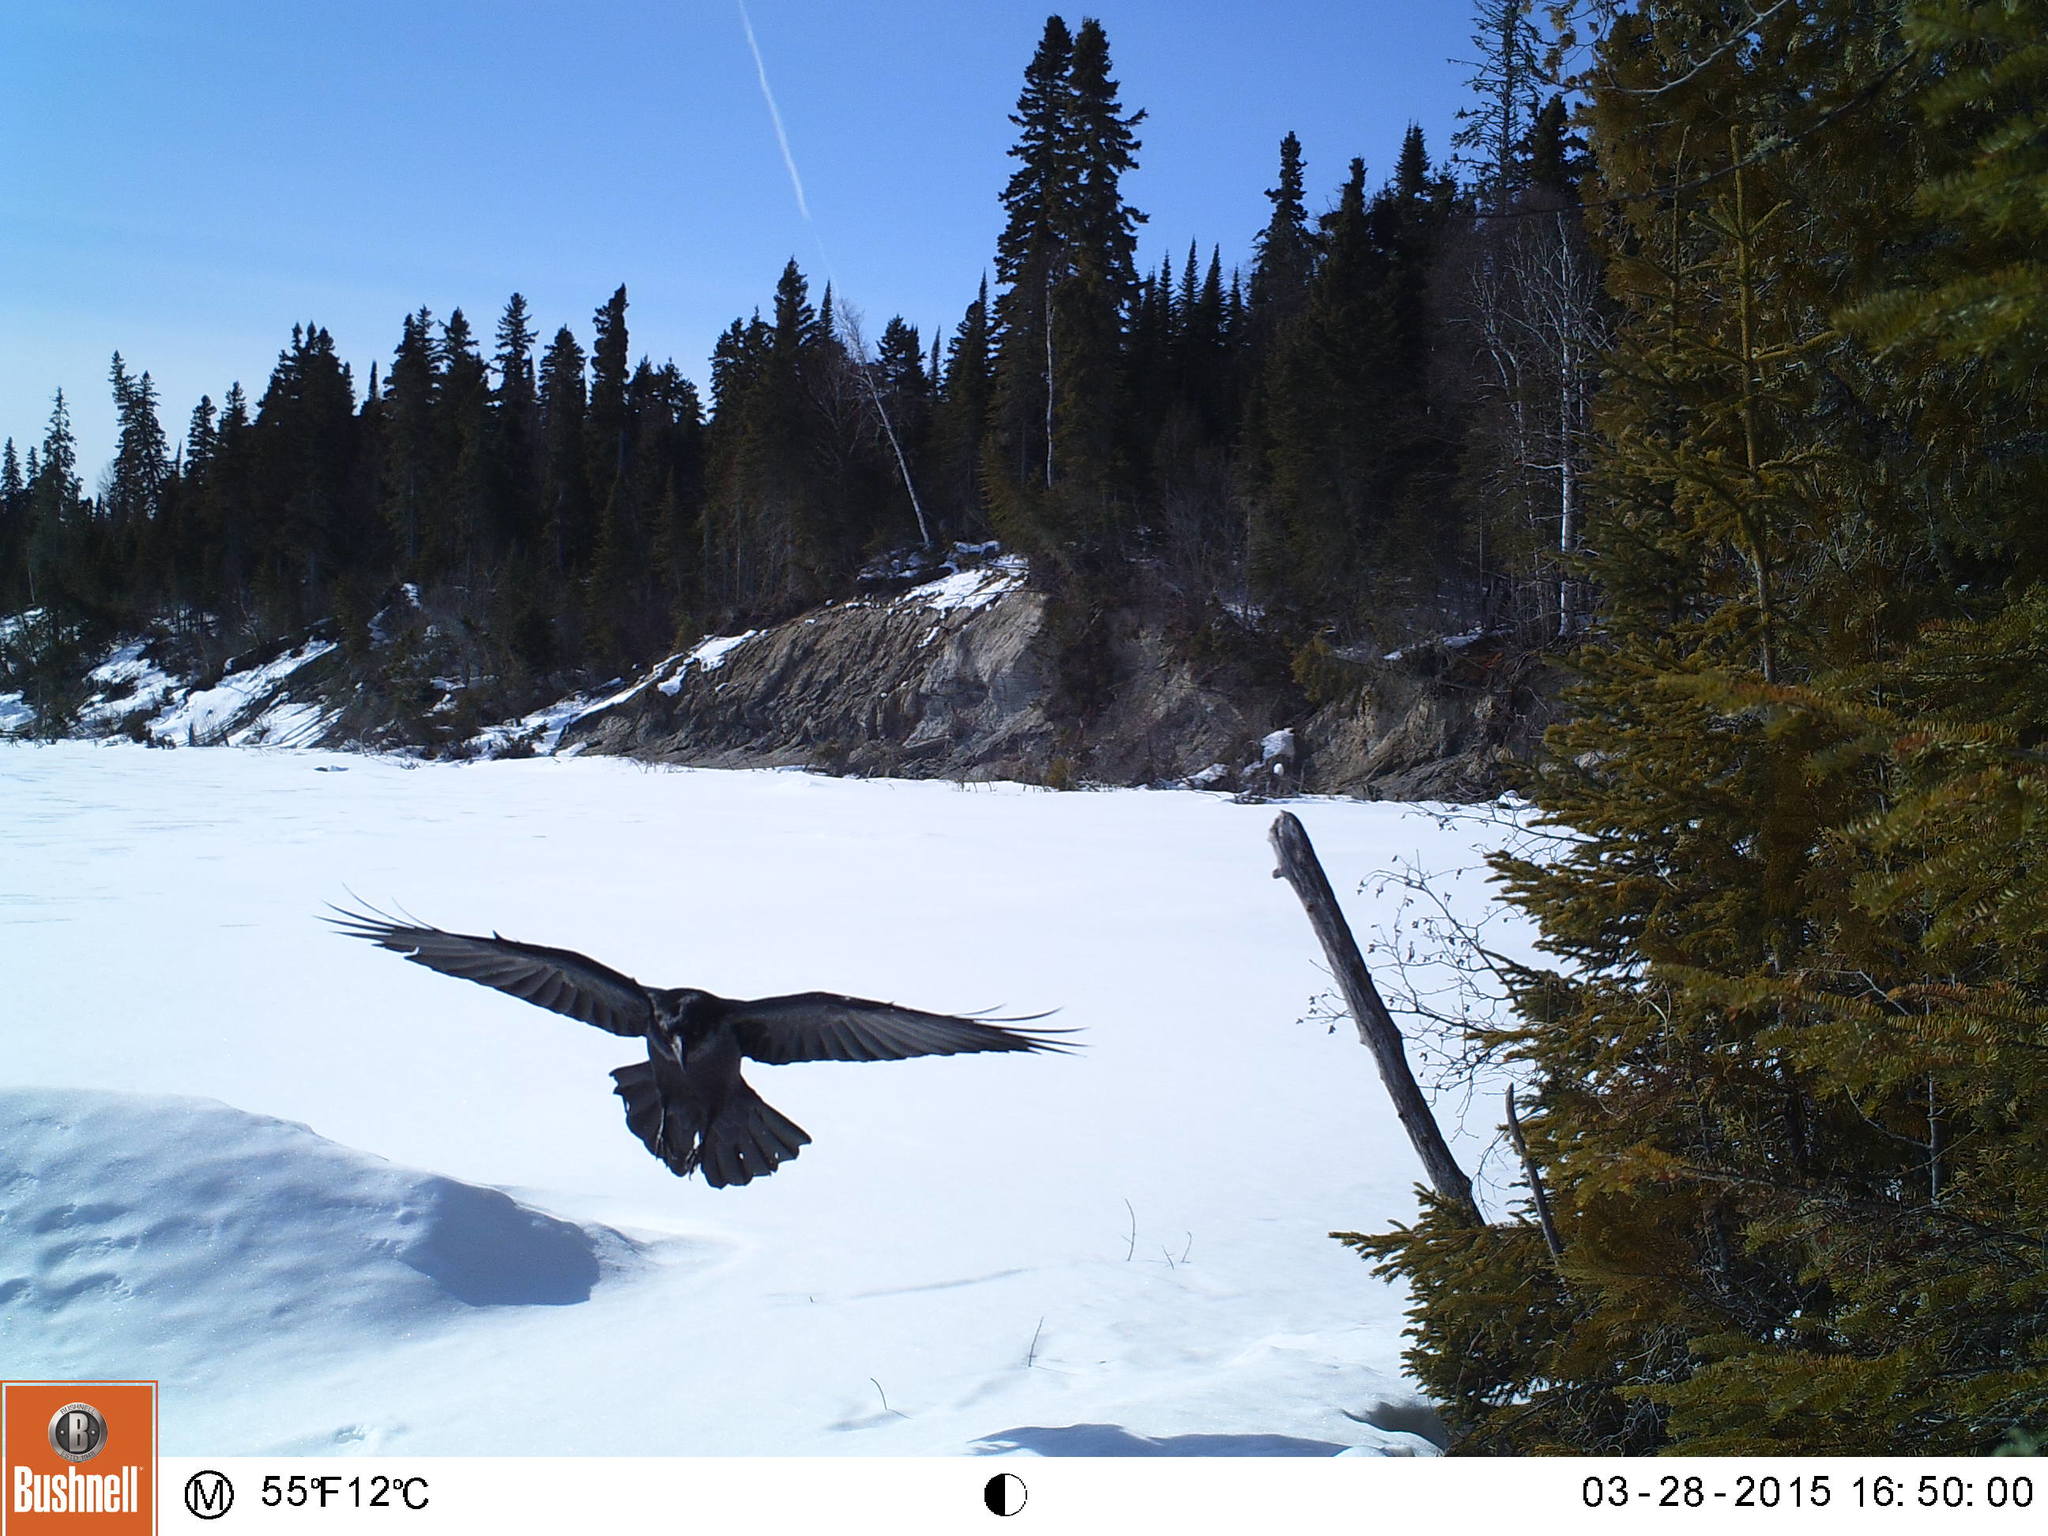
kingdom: Animalia
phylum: Chordata
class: Aves
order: Passeriformes
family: Corvidae
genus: Corvus
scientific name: Corvus corax
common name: Common raven
